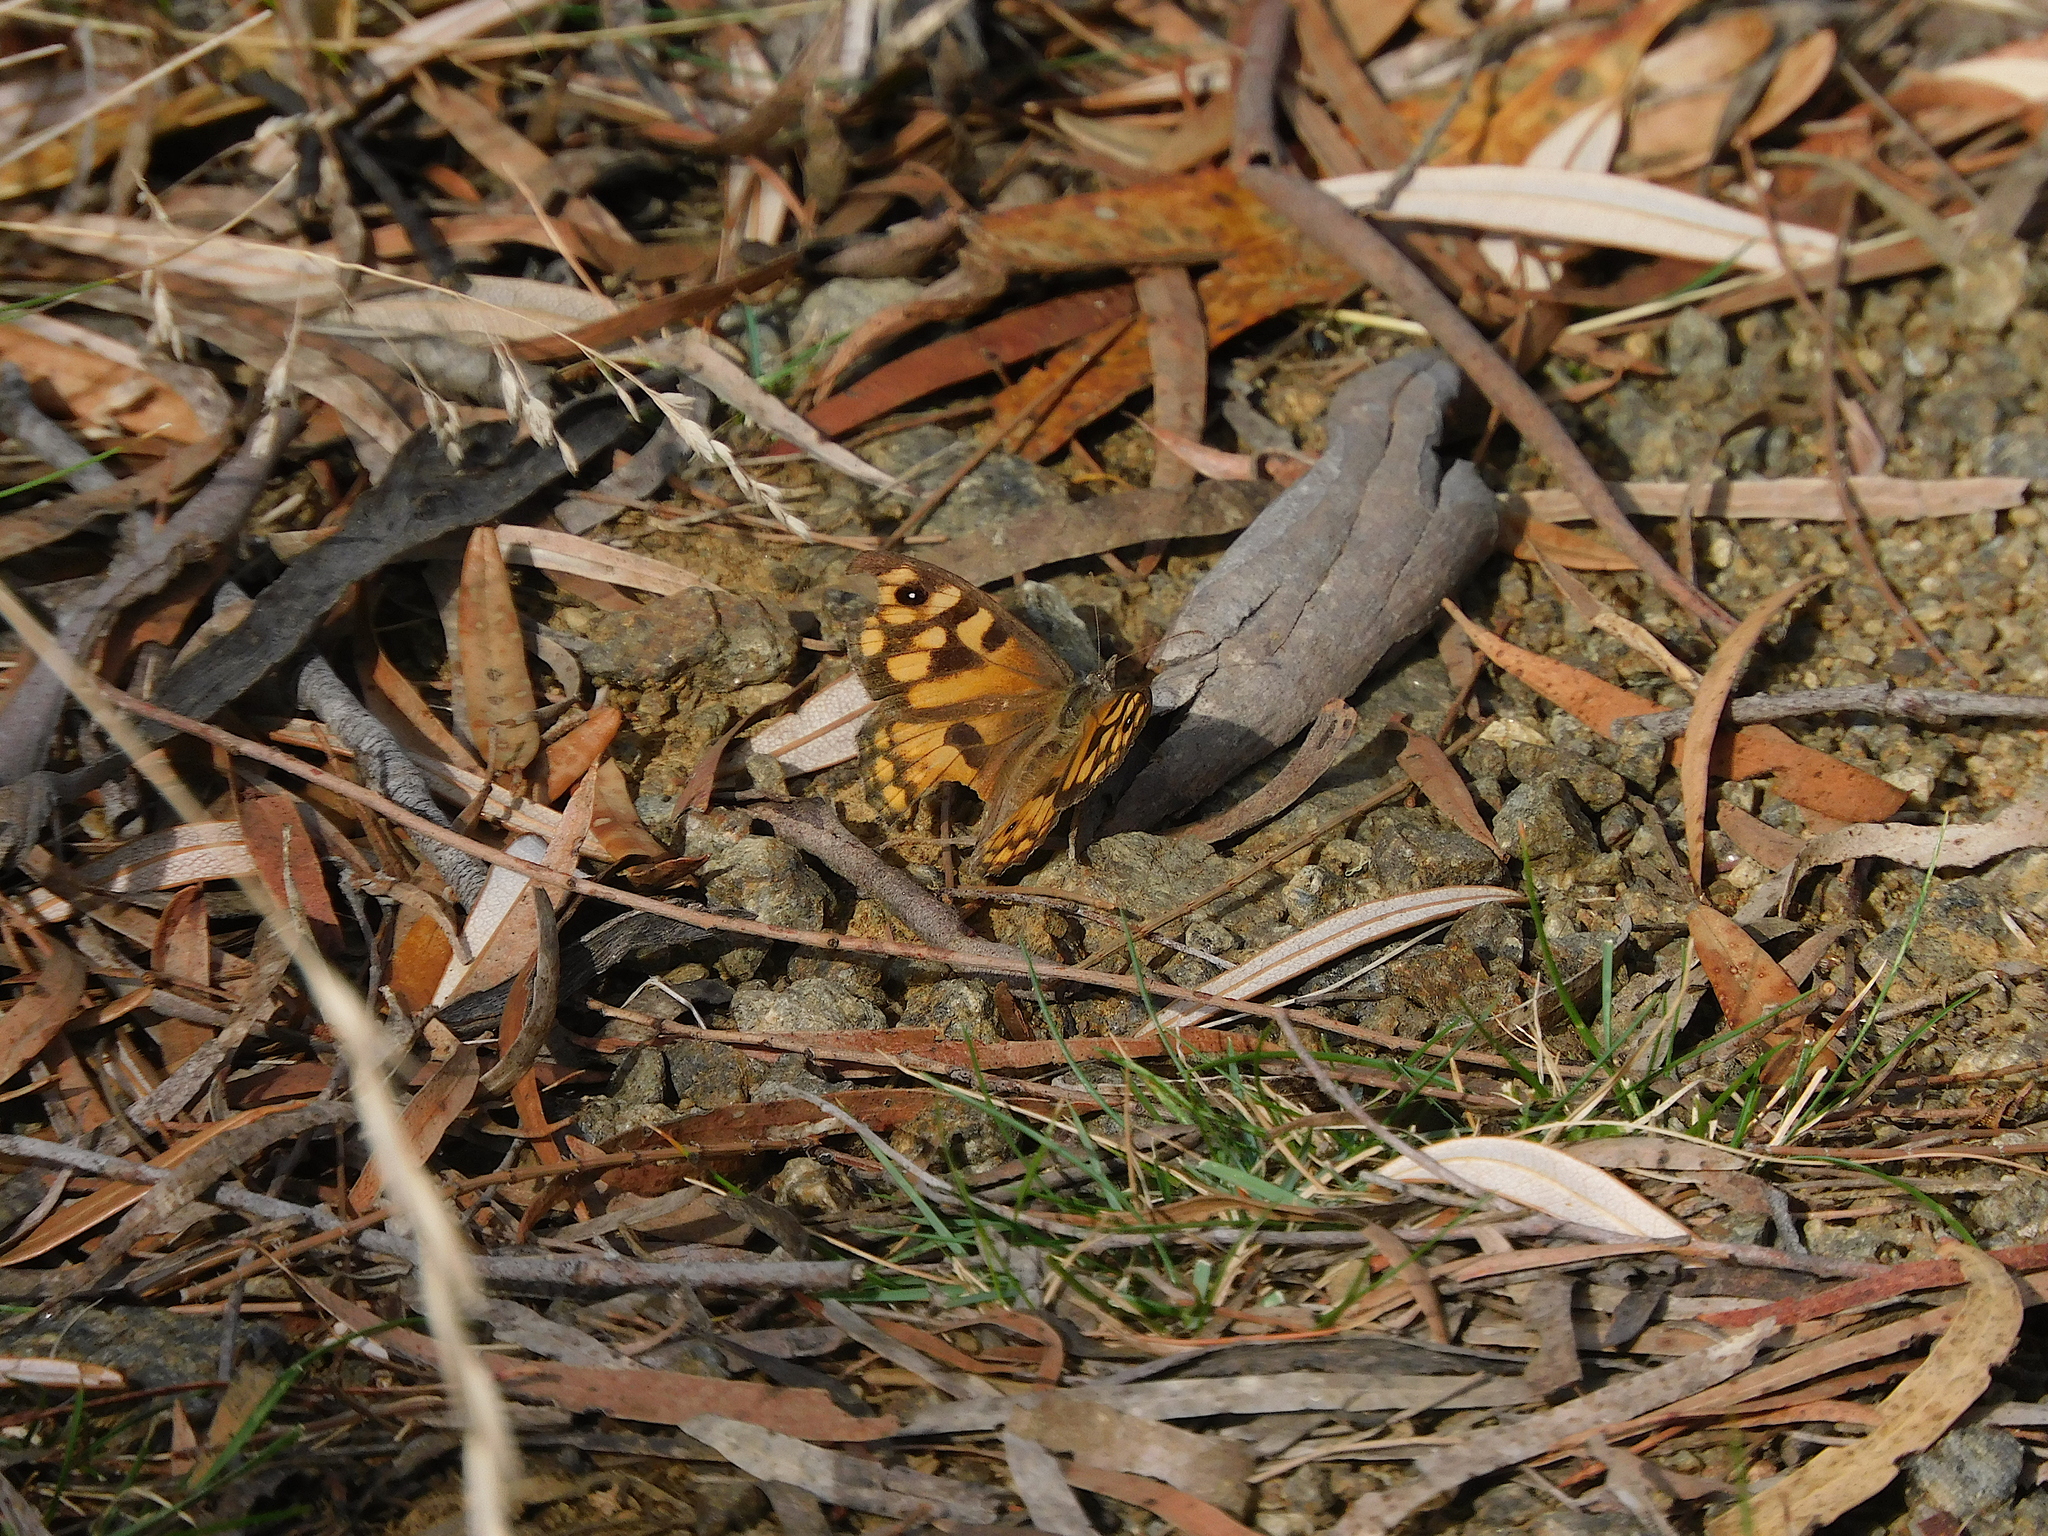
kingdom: Animalia
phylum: Arthropoda
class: Insecta
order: Lepidoptera
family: Nymphalidae
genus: Geitoneura
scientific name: Geitoneura klugii
